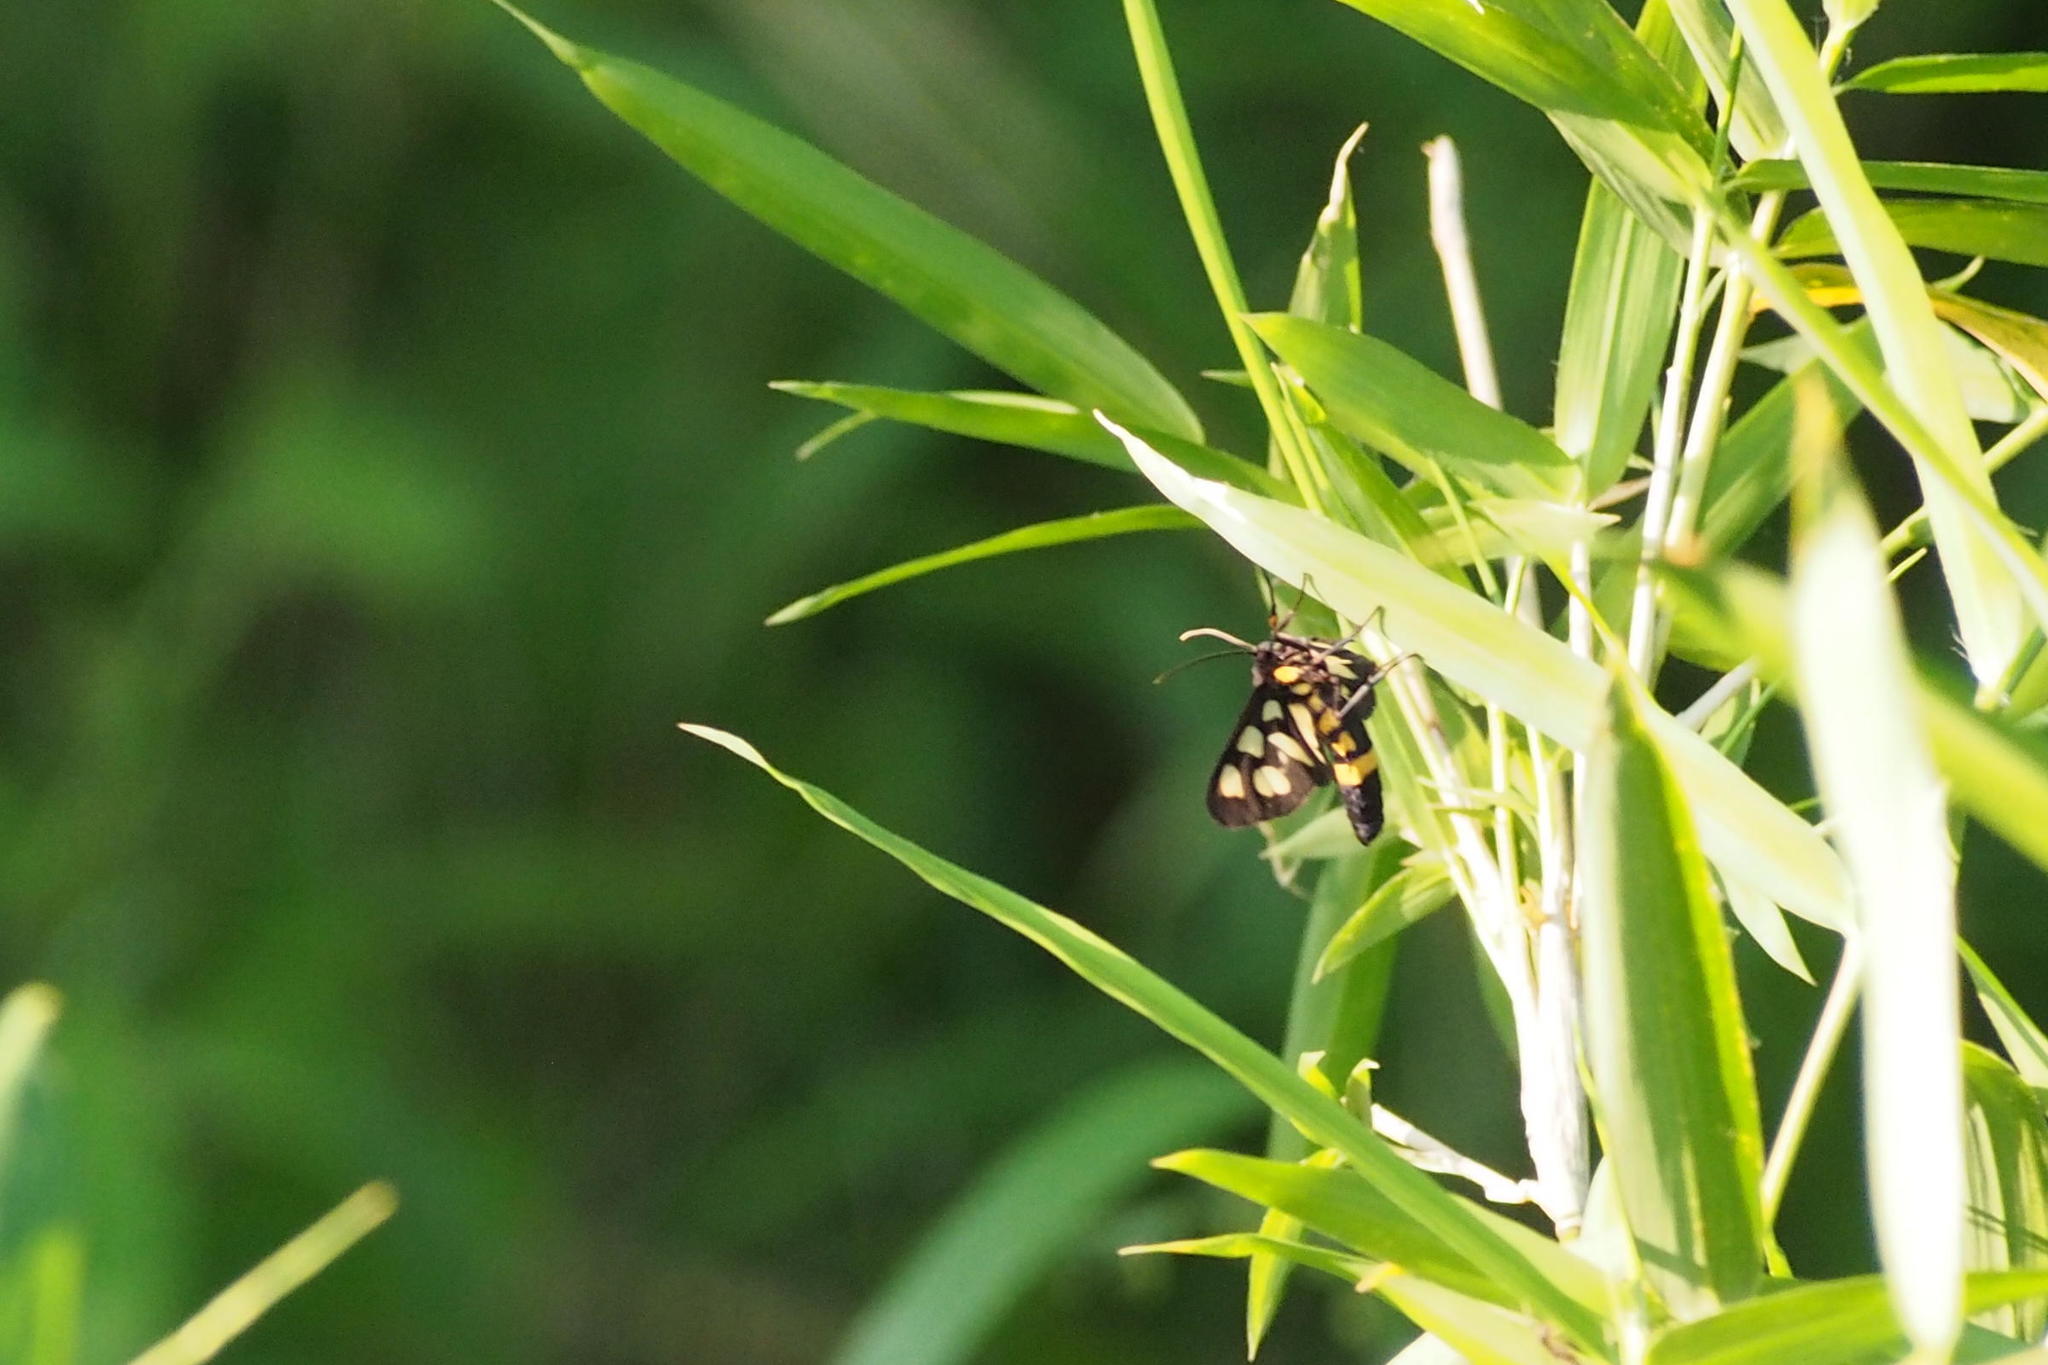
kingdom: Animalia
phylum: Arthropoda
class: Insecta
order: Lepidoptera
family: Erebidae
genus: Amata
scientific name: Amata fortunei
